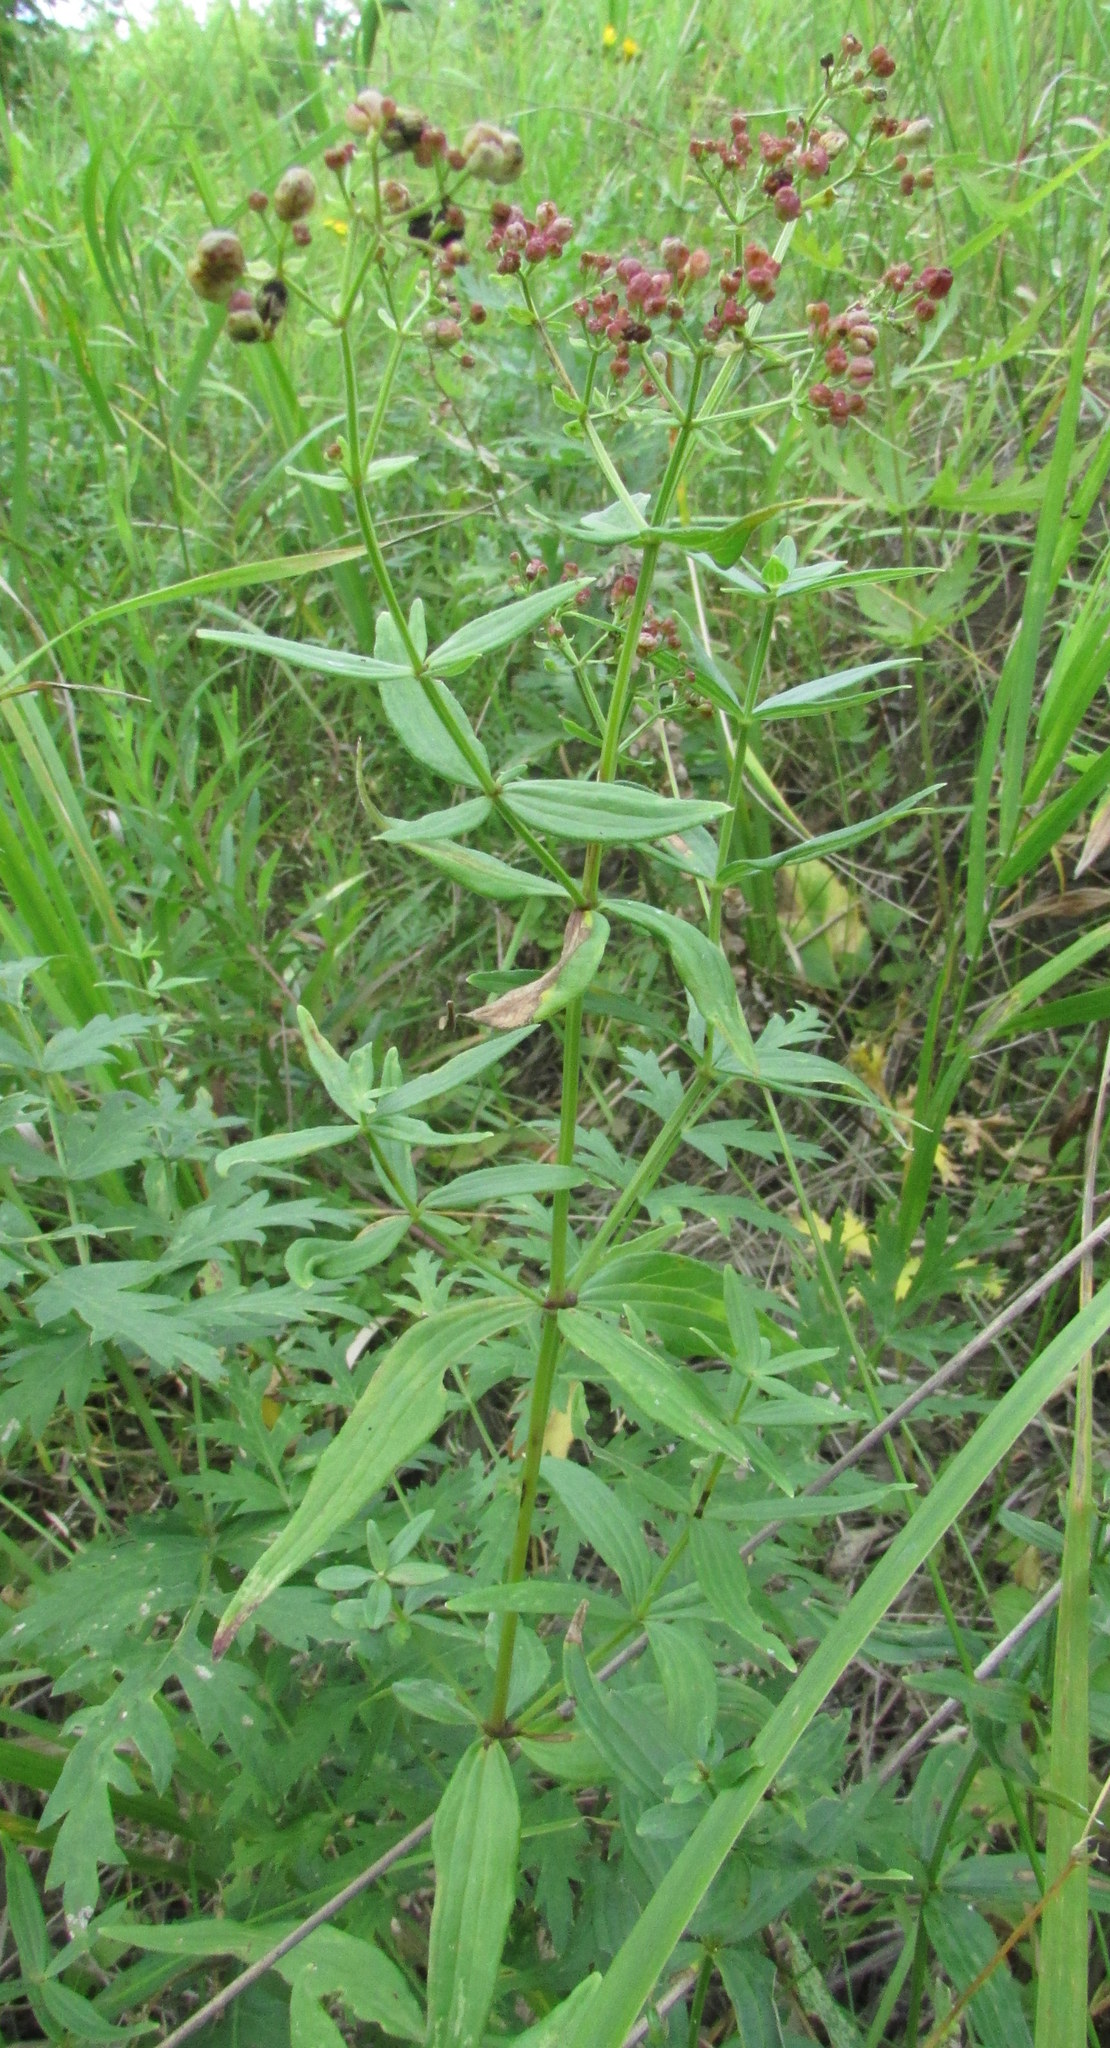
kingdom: Plantae
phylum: Tracheophyta
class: Magnoliopsida
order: Gentianales
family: Rubiaceae
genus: Galium
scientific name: Galium rubioides
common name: European bedstraw
